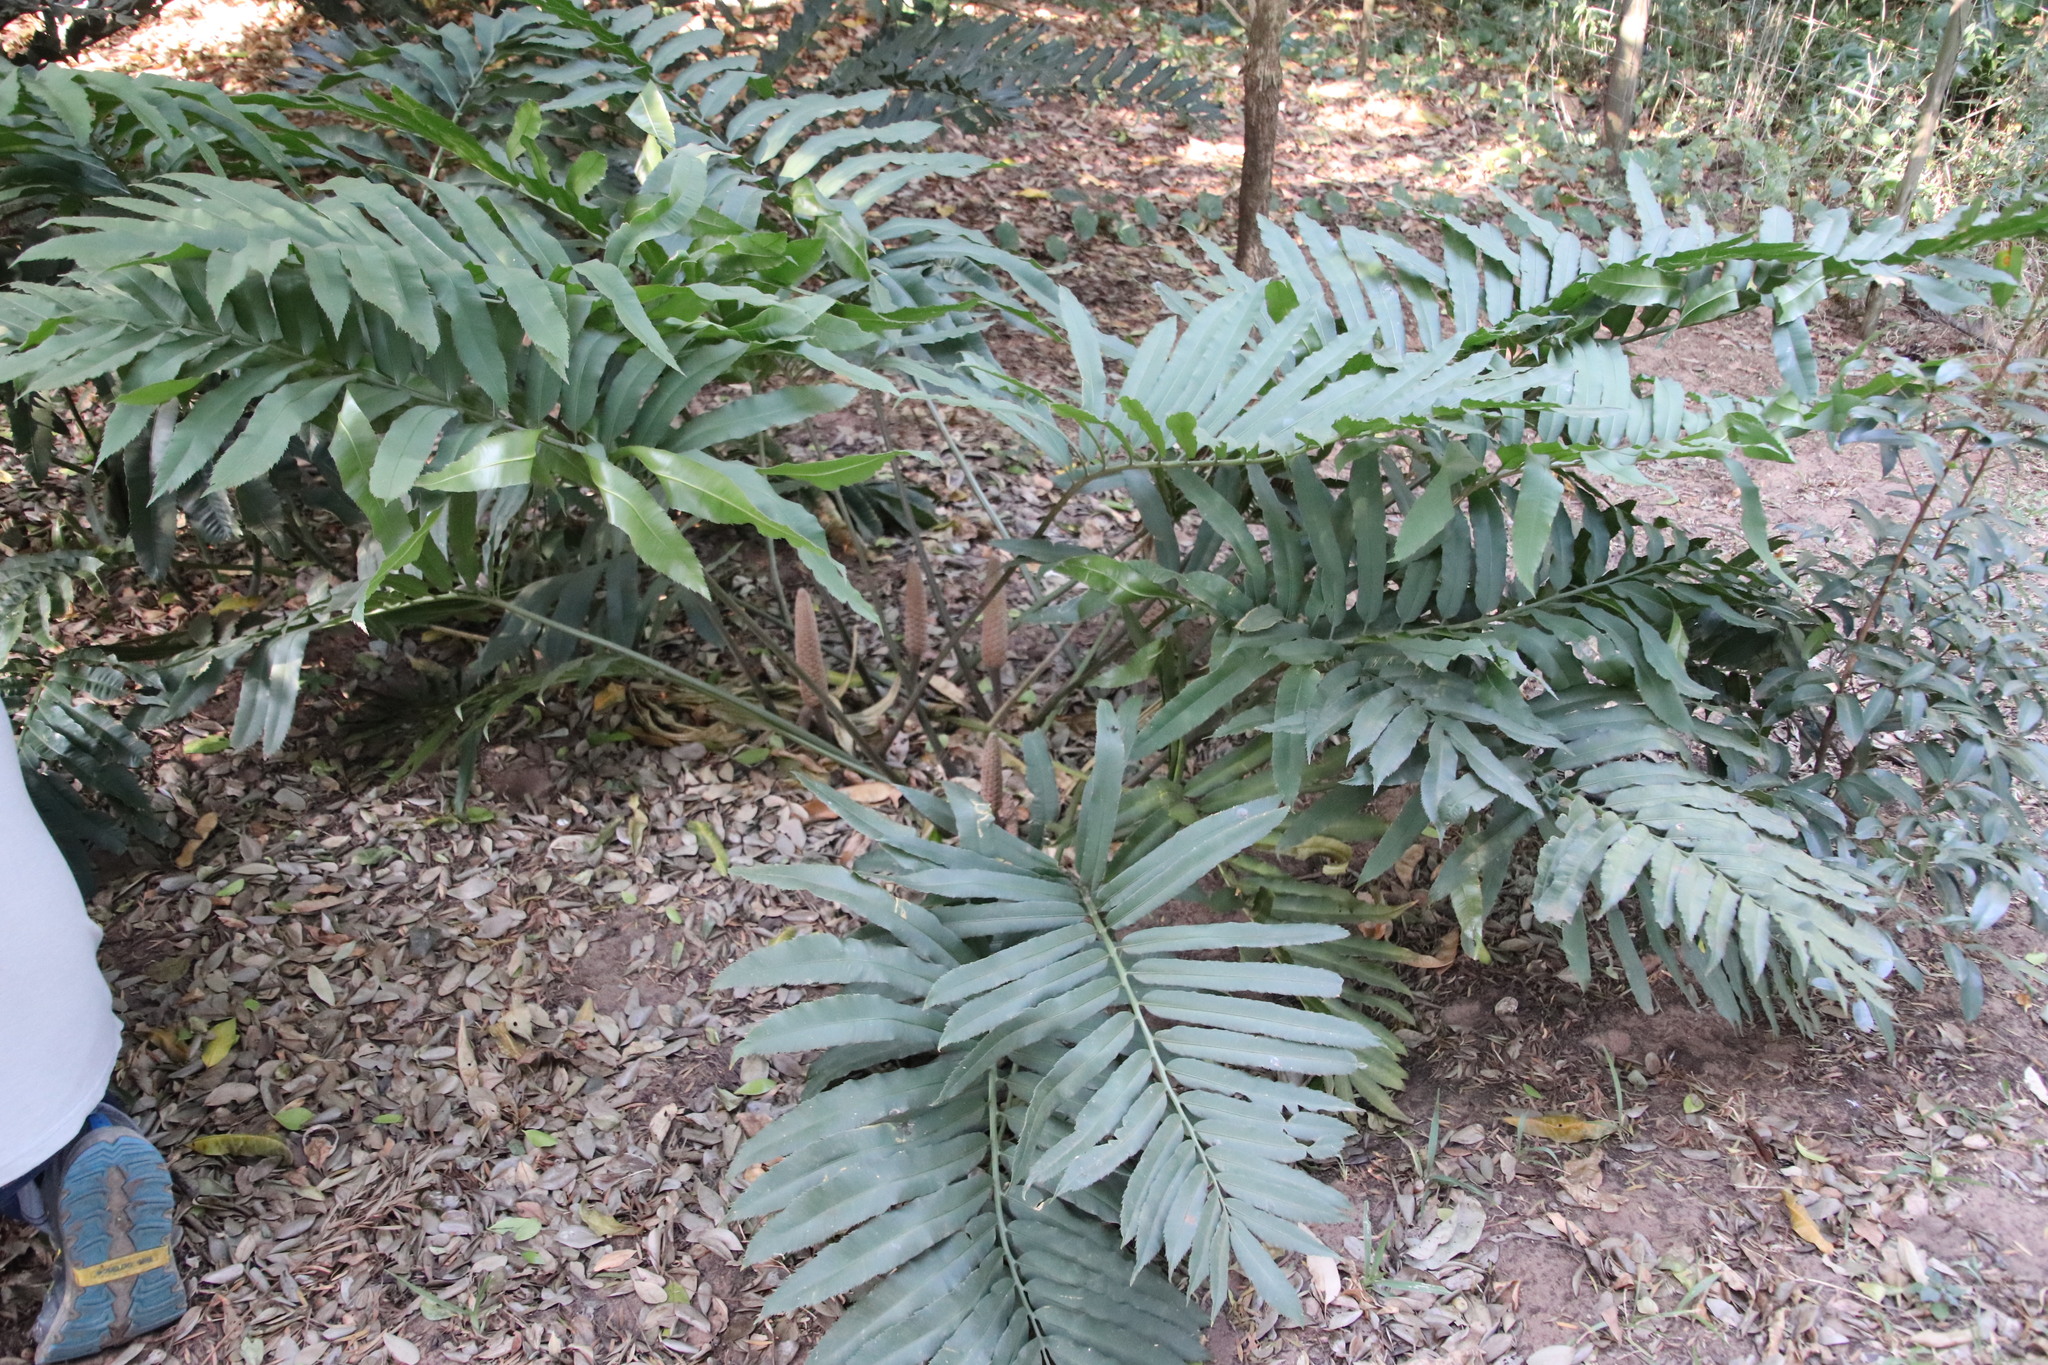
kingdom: Plantae
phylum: Tracheophyta
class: Cycadopsida
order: Cycadales
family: Zamiaceae
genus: Stangeria
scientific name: Stangeria eriopus
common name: Natal grass cycad
